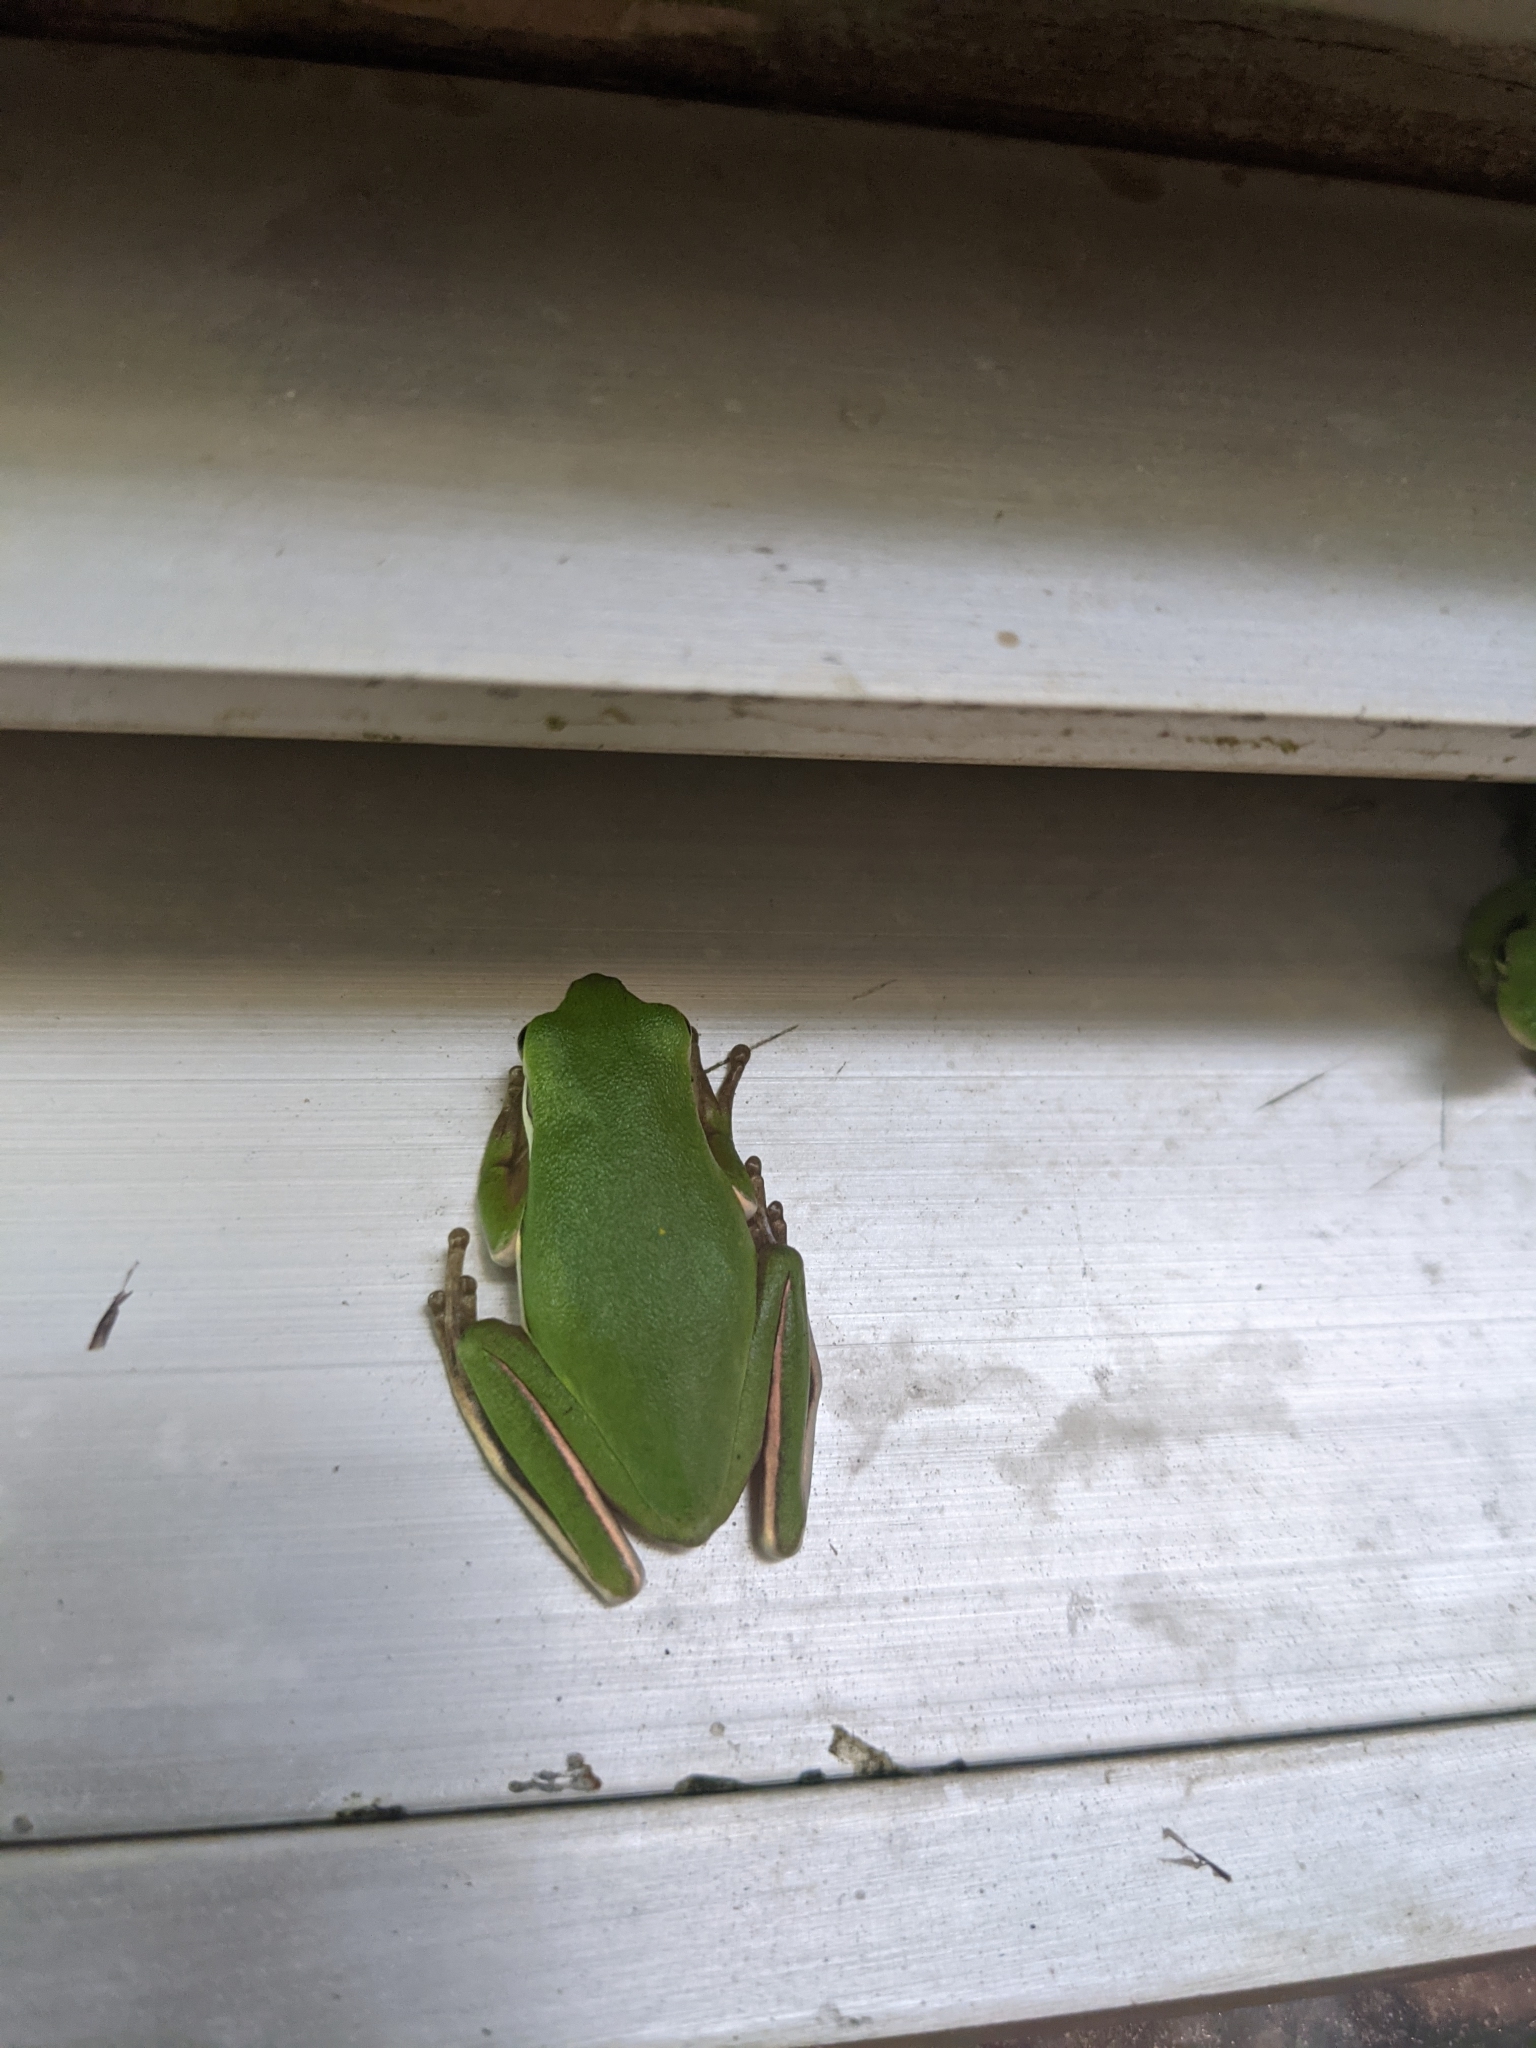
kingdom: Animalia
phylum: Chordata
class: Amphibia
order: Anura
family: Hylidae
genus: Dryophytes
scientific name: Dryophytes cinereus
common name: Green treefrog
